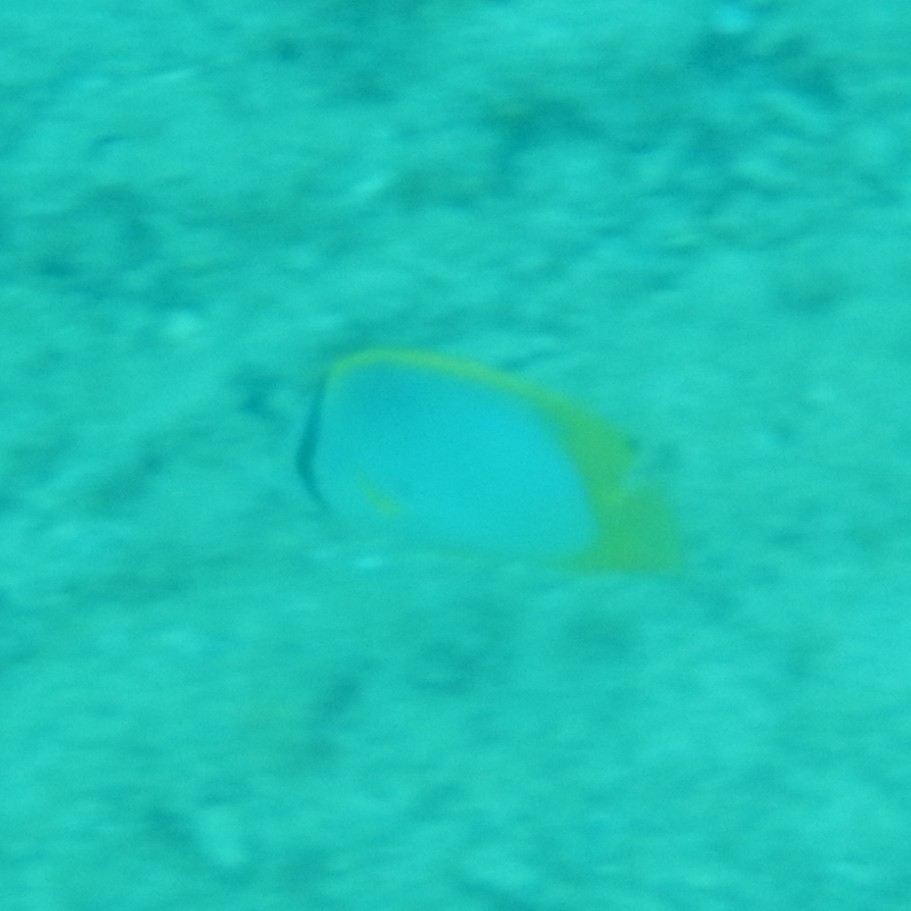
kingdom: Animalia
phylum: Chordata
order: Perciformes
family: Chaetodontidae
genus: Chaetodon
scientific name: Chaetodon ocellatus
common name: Spotfin butterflyfish
